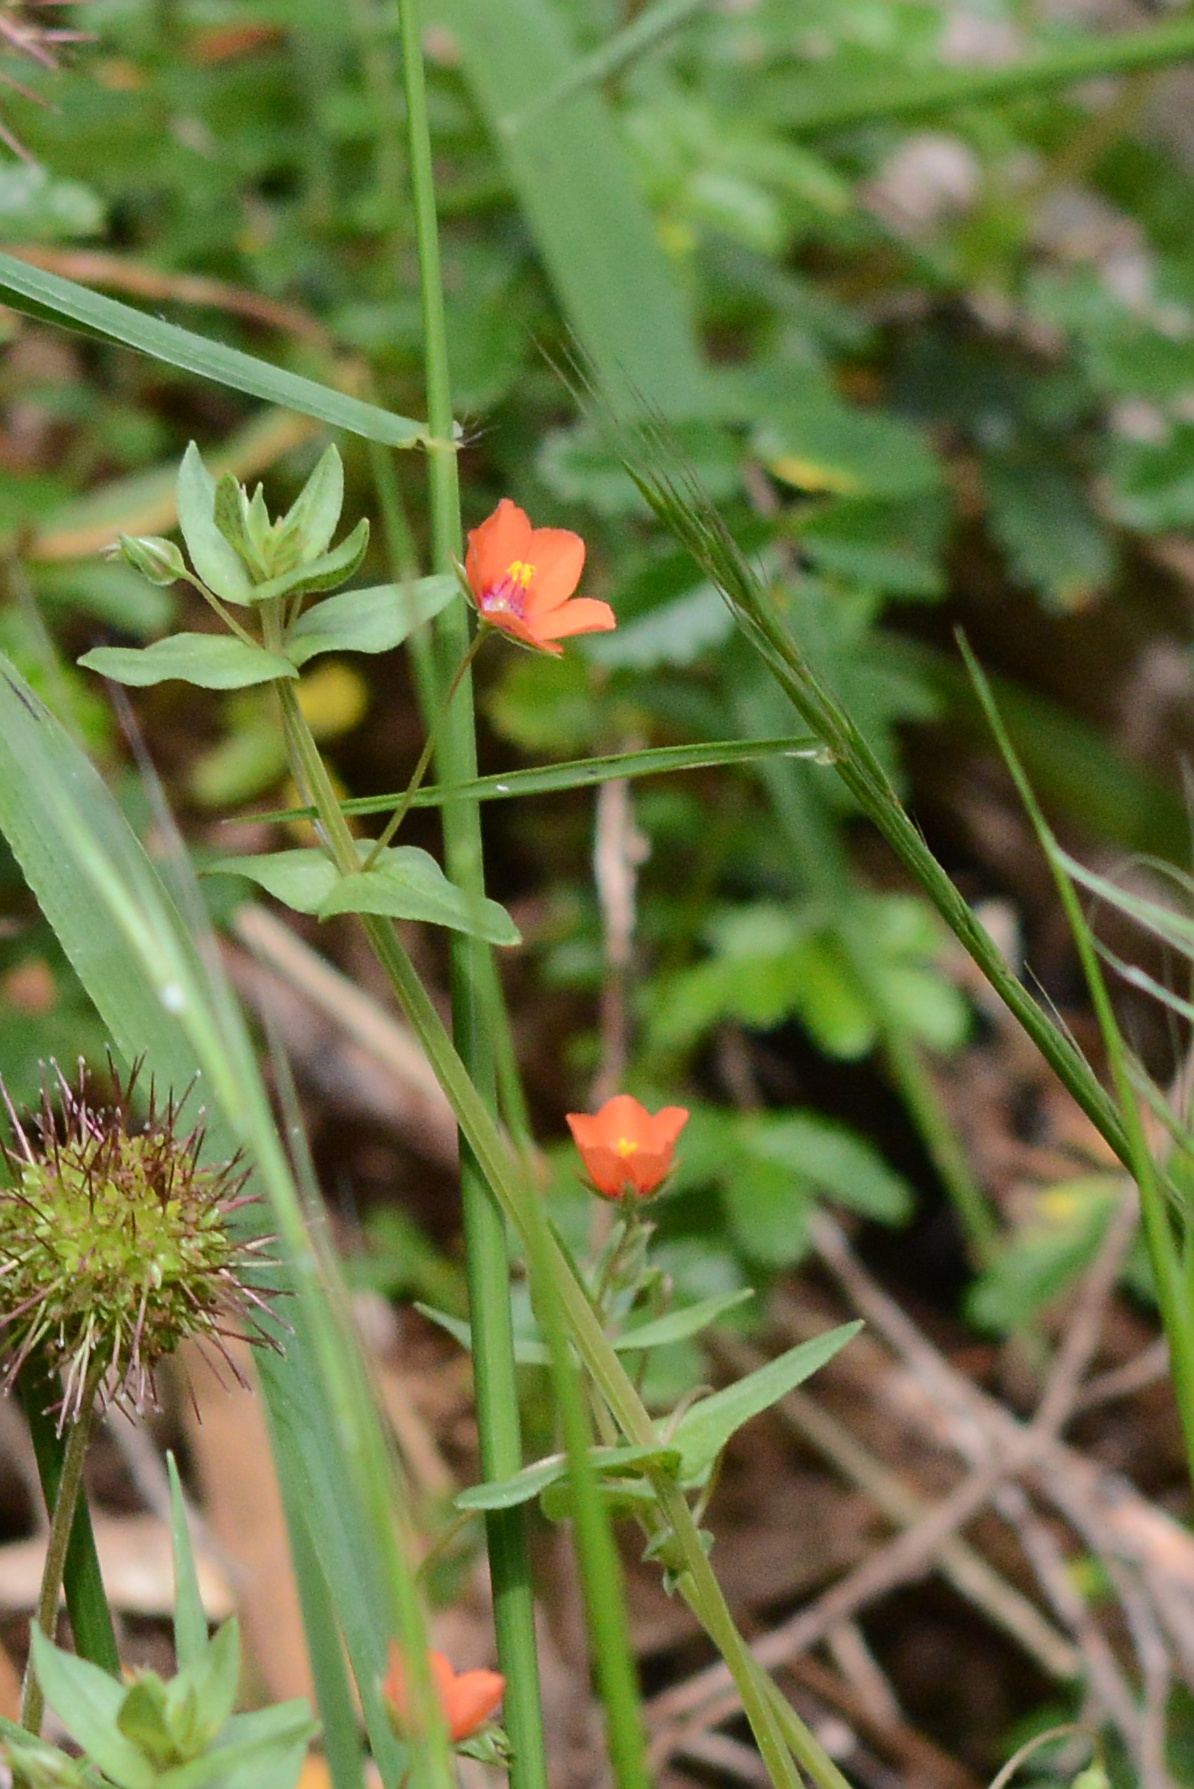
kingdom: Plantae
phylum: Tracheophyta
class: Magnoliopsida
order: Ericales
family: Primulaceae
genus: Lysimachia
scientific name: Lysimachia arvensis
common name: Scarlet pimpernel
